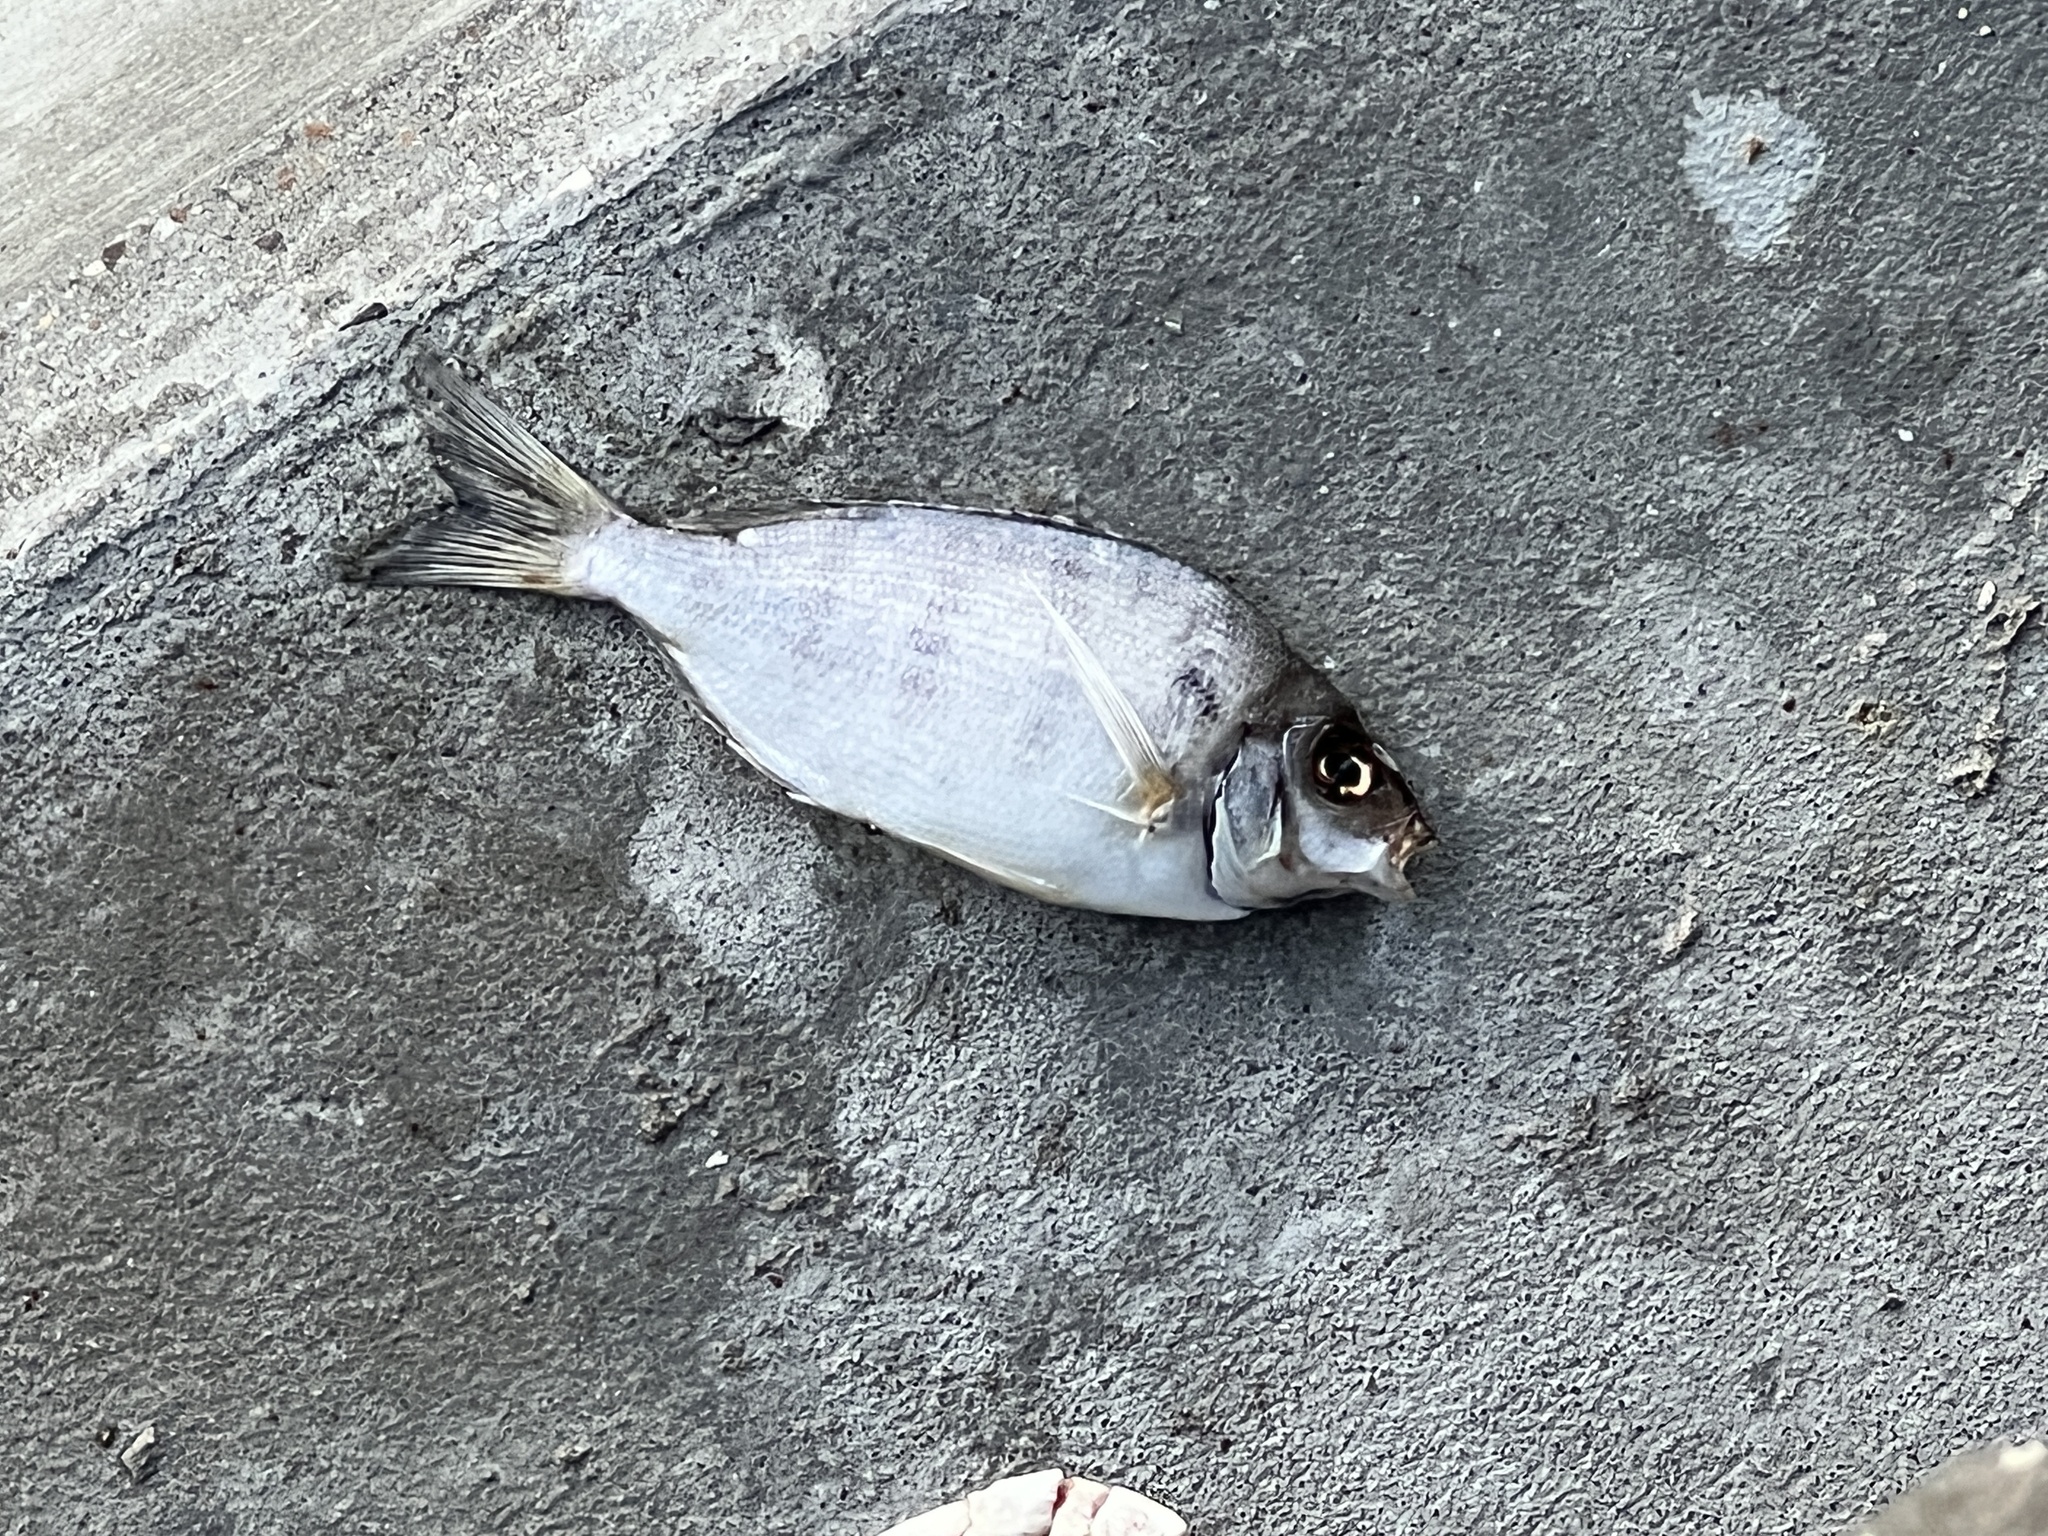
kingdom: Animalia
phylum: Chordata
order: Perciformes
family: Sparidae
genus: Lagodon
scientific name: Lagodon rhomboides
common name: Pinfish
